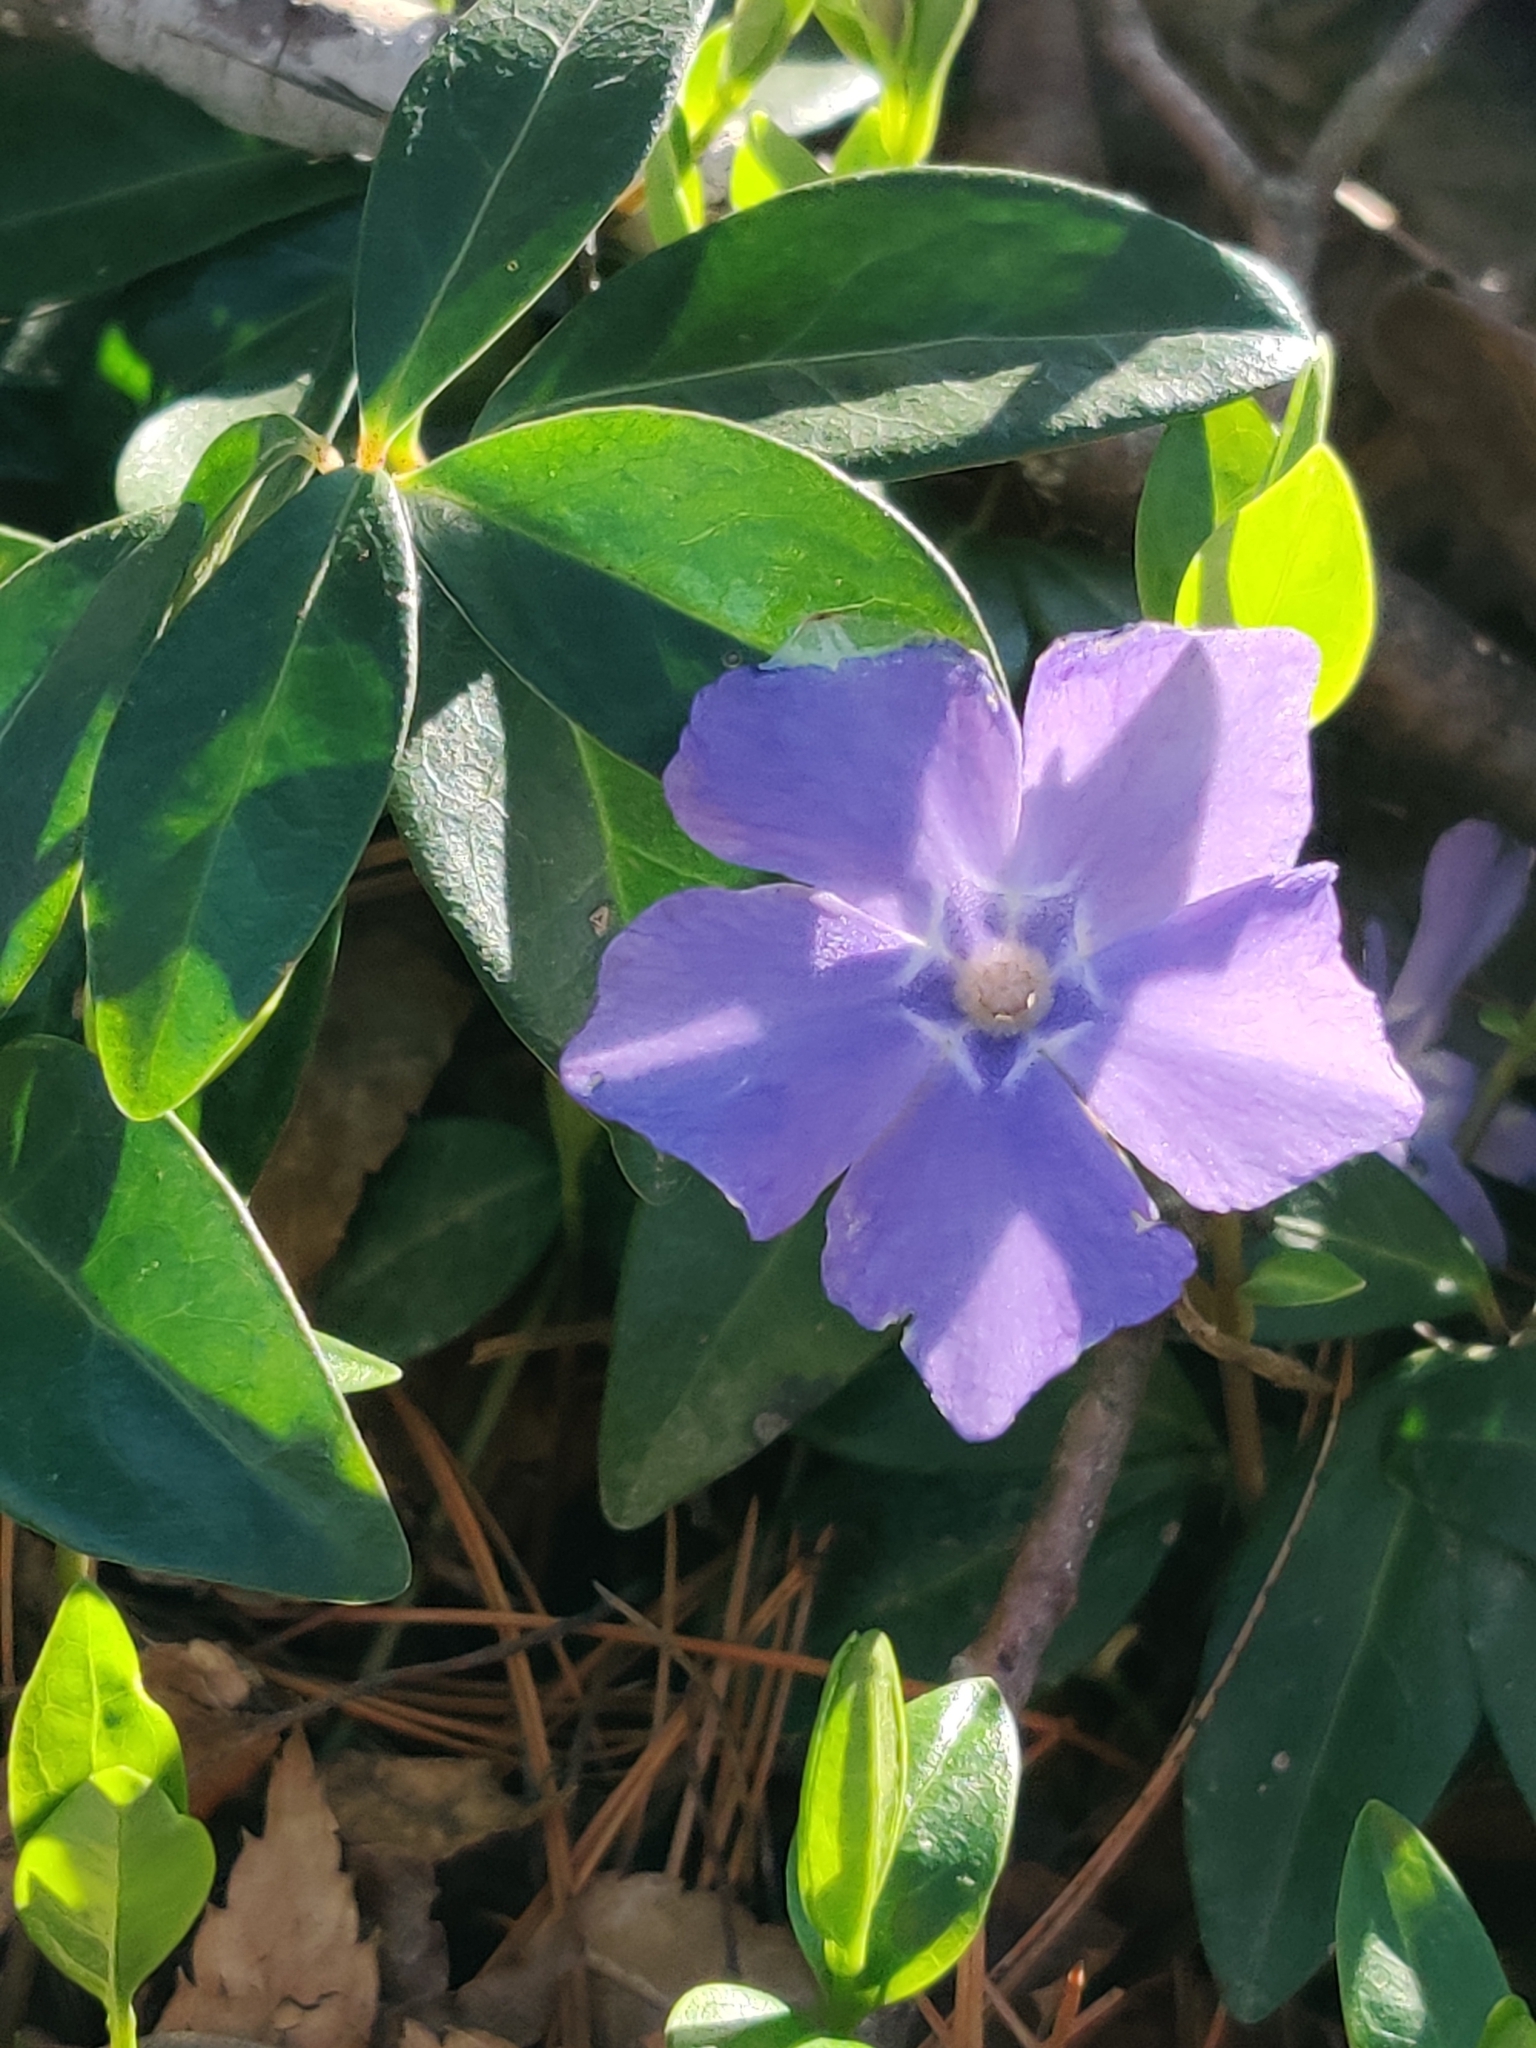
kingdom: Plantae
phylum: Tracheophyta
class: Magnoliopsida
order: Gentianales
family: Apocynaceae
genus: Vinca
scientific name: Vinca minor
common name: Lesser periwinkle
